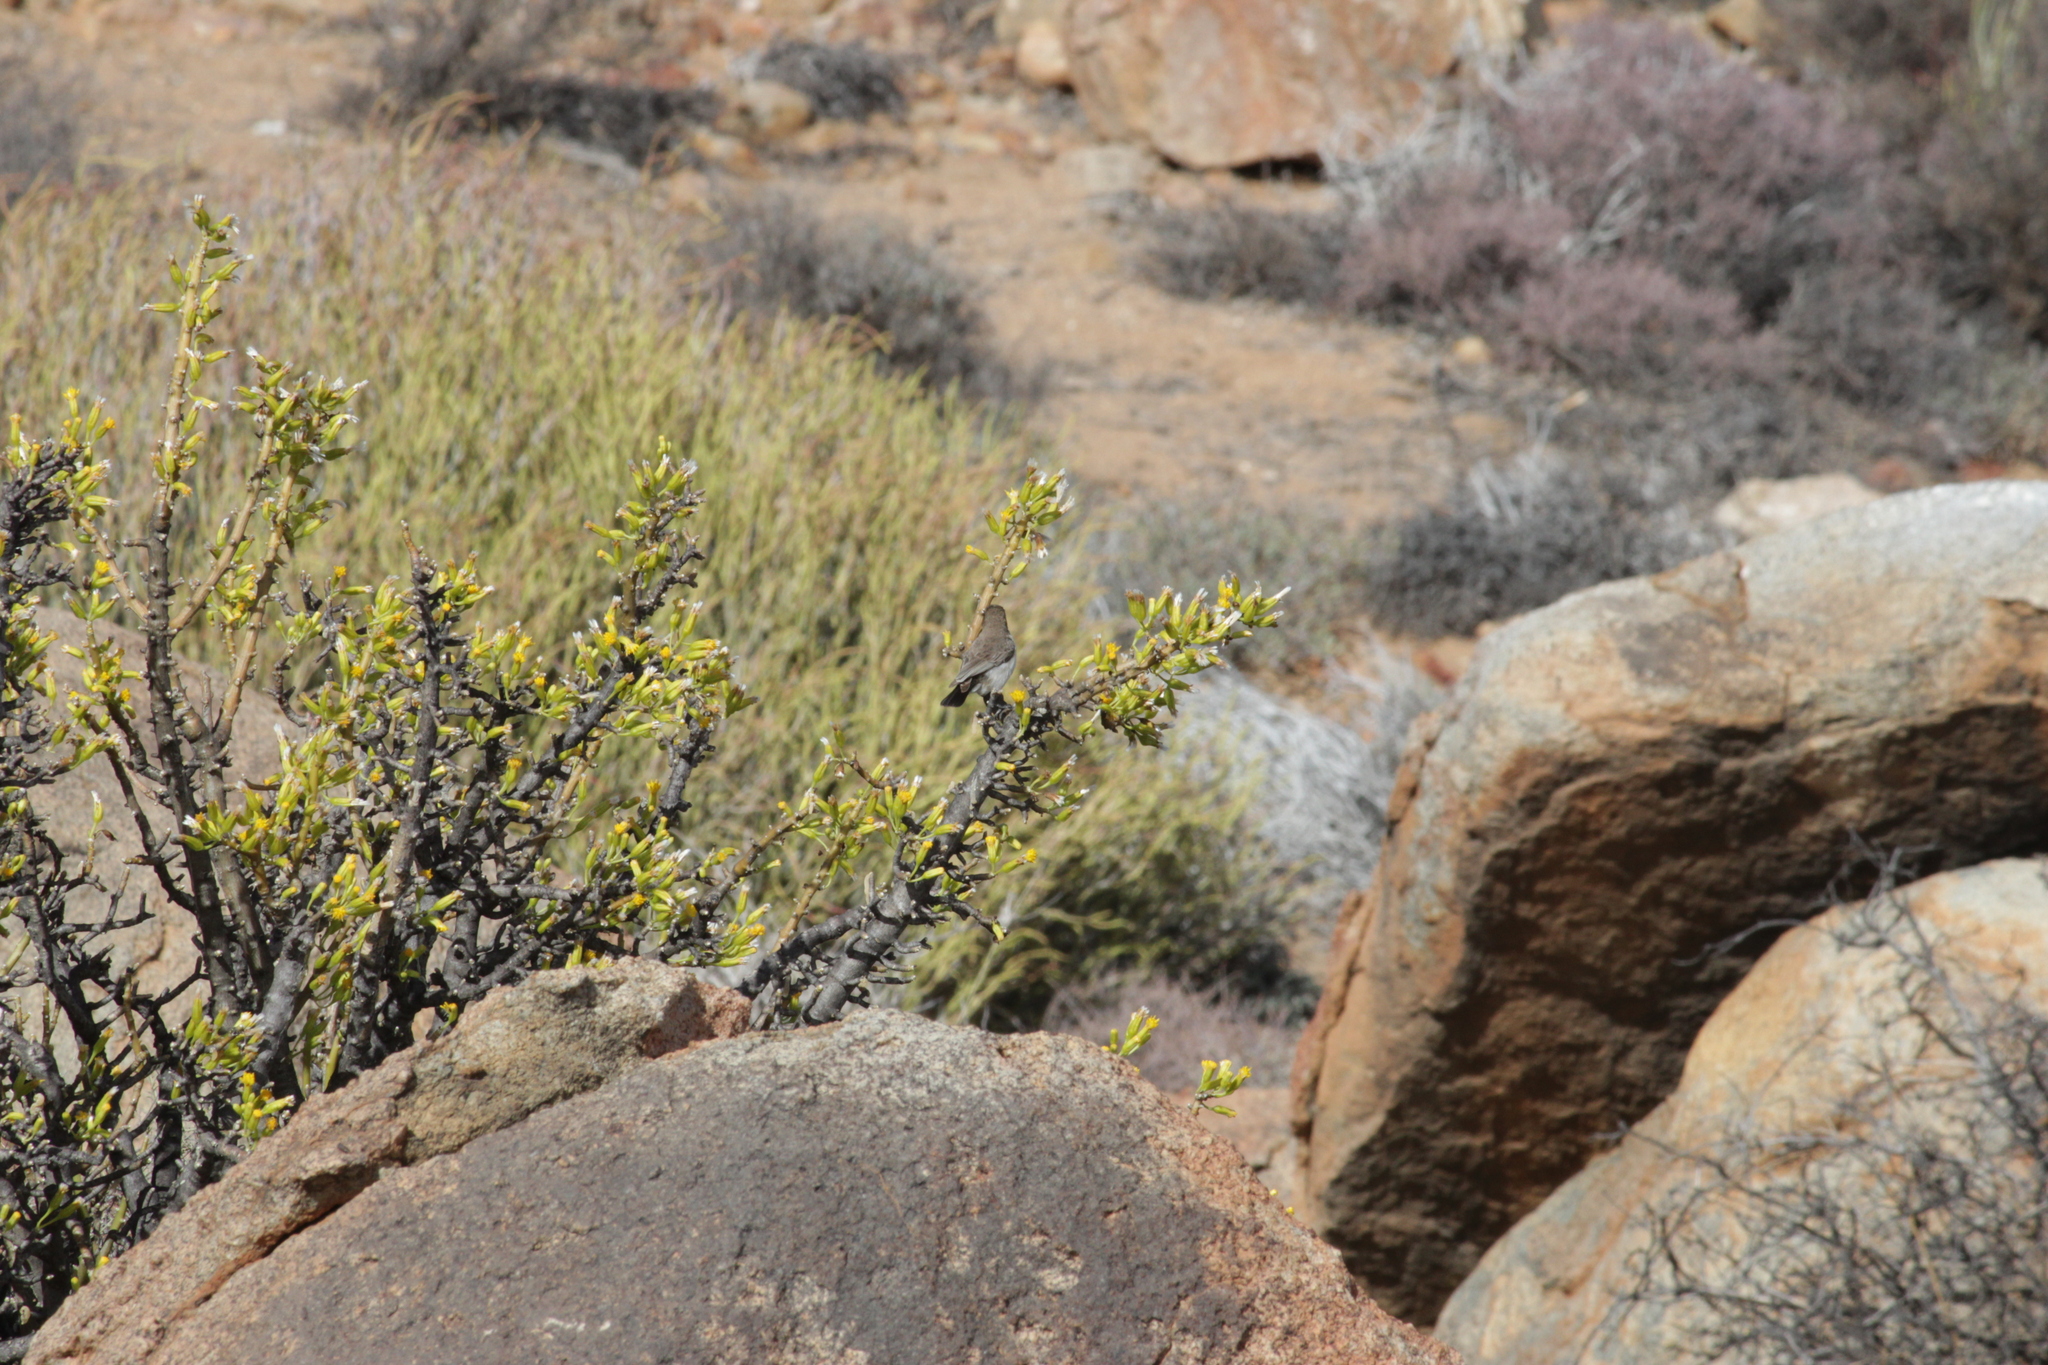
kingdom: Animalia
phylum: Chordata
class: Aves
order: Passeriformes
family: Nectariniidae
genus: Cinnyris
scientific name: Cinnyris fuscus
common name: Dusky sunbird
